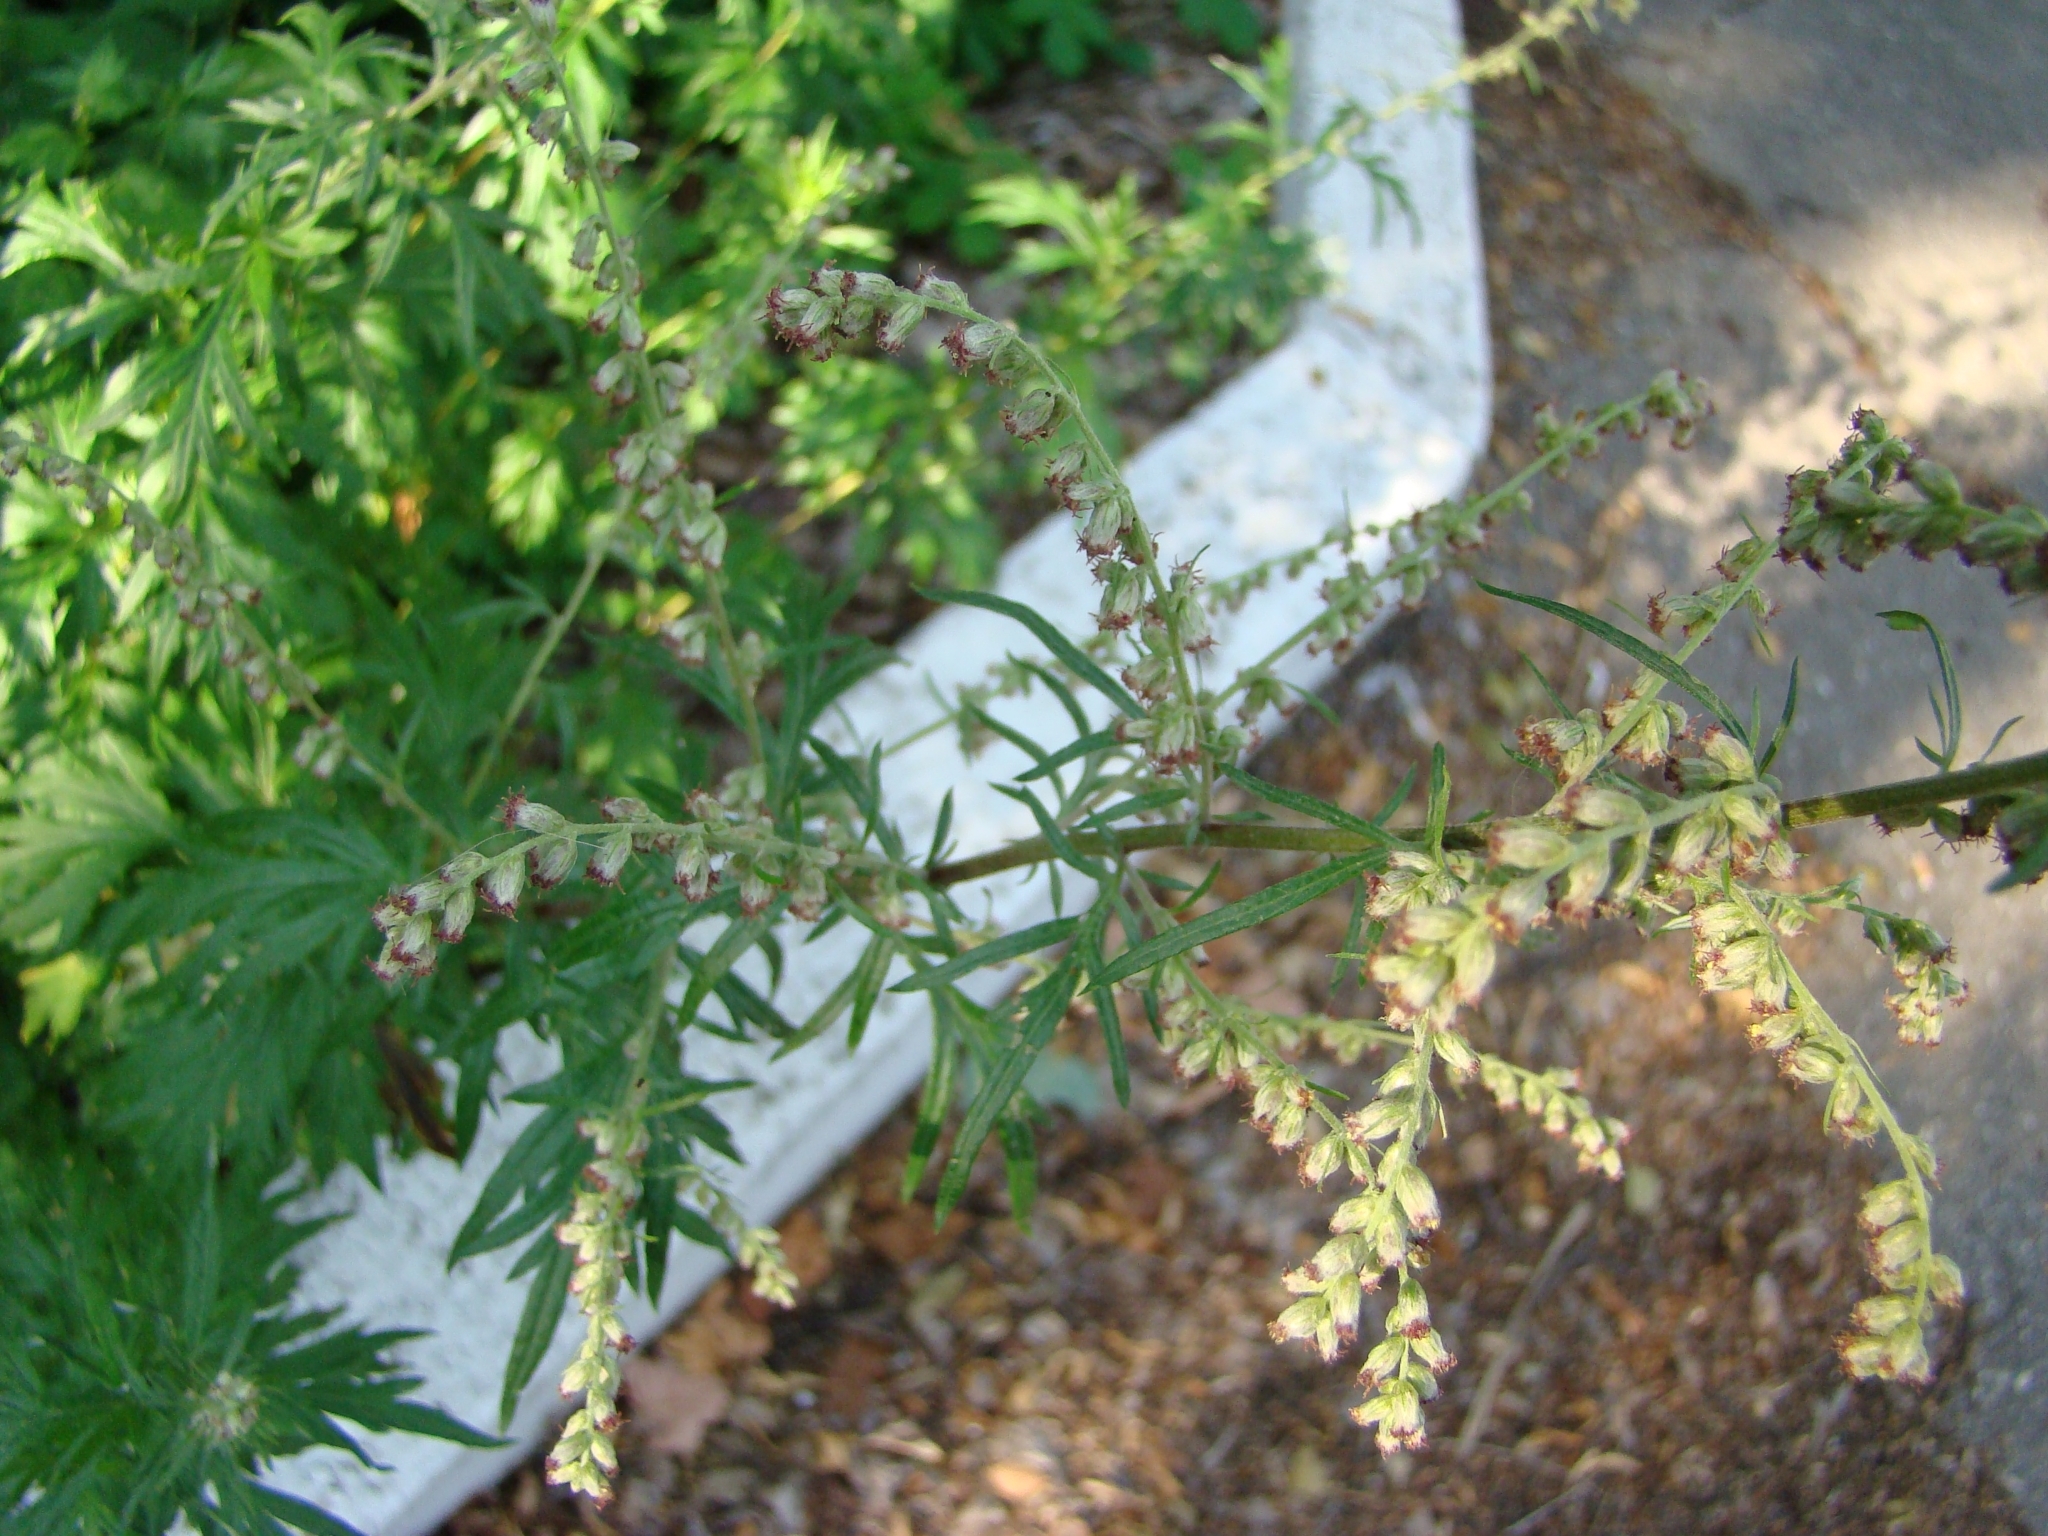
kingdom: Plantae
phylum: Tracheophyta
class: Magnoliopsida
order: Asterales
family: Asteraceae
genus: Artemisia
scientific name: Artemisia vulgaris
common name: Mugwort
